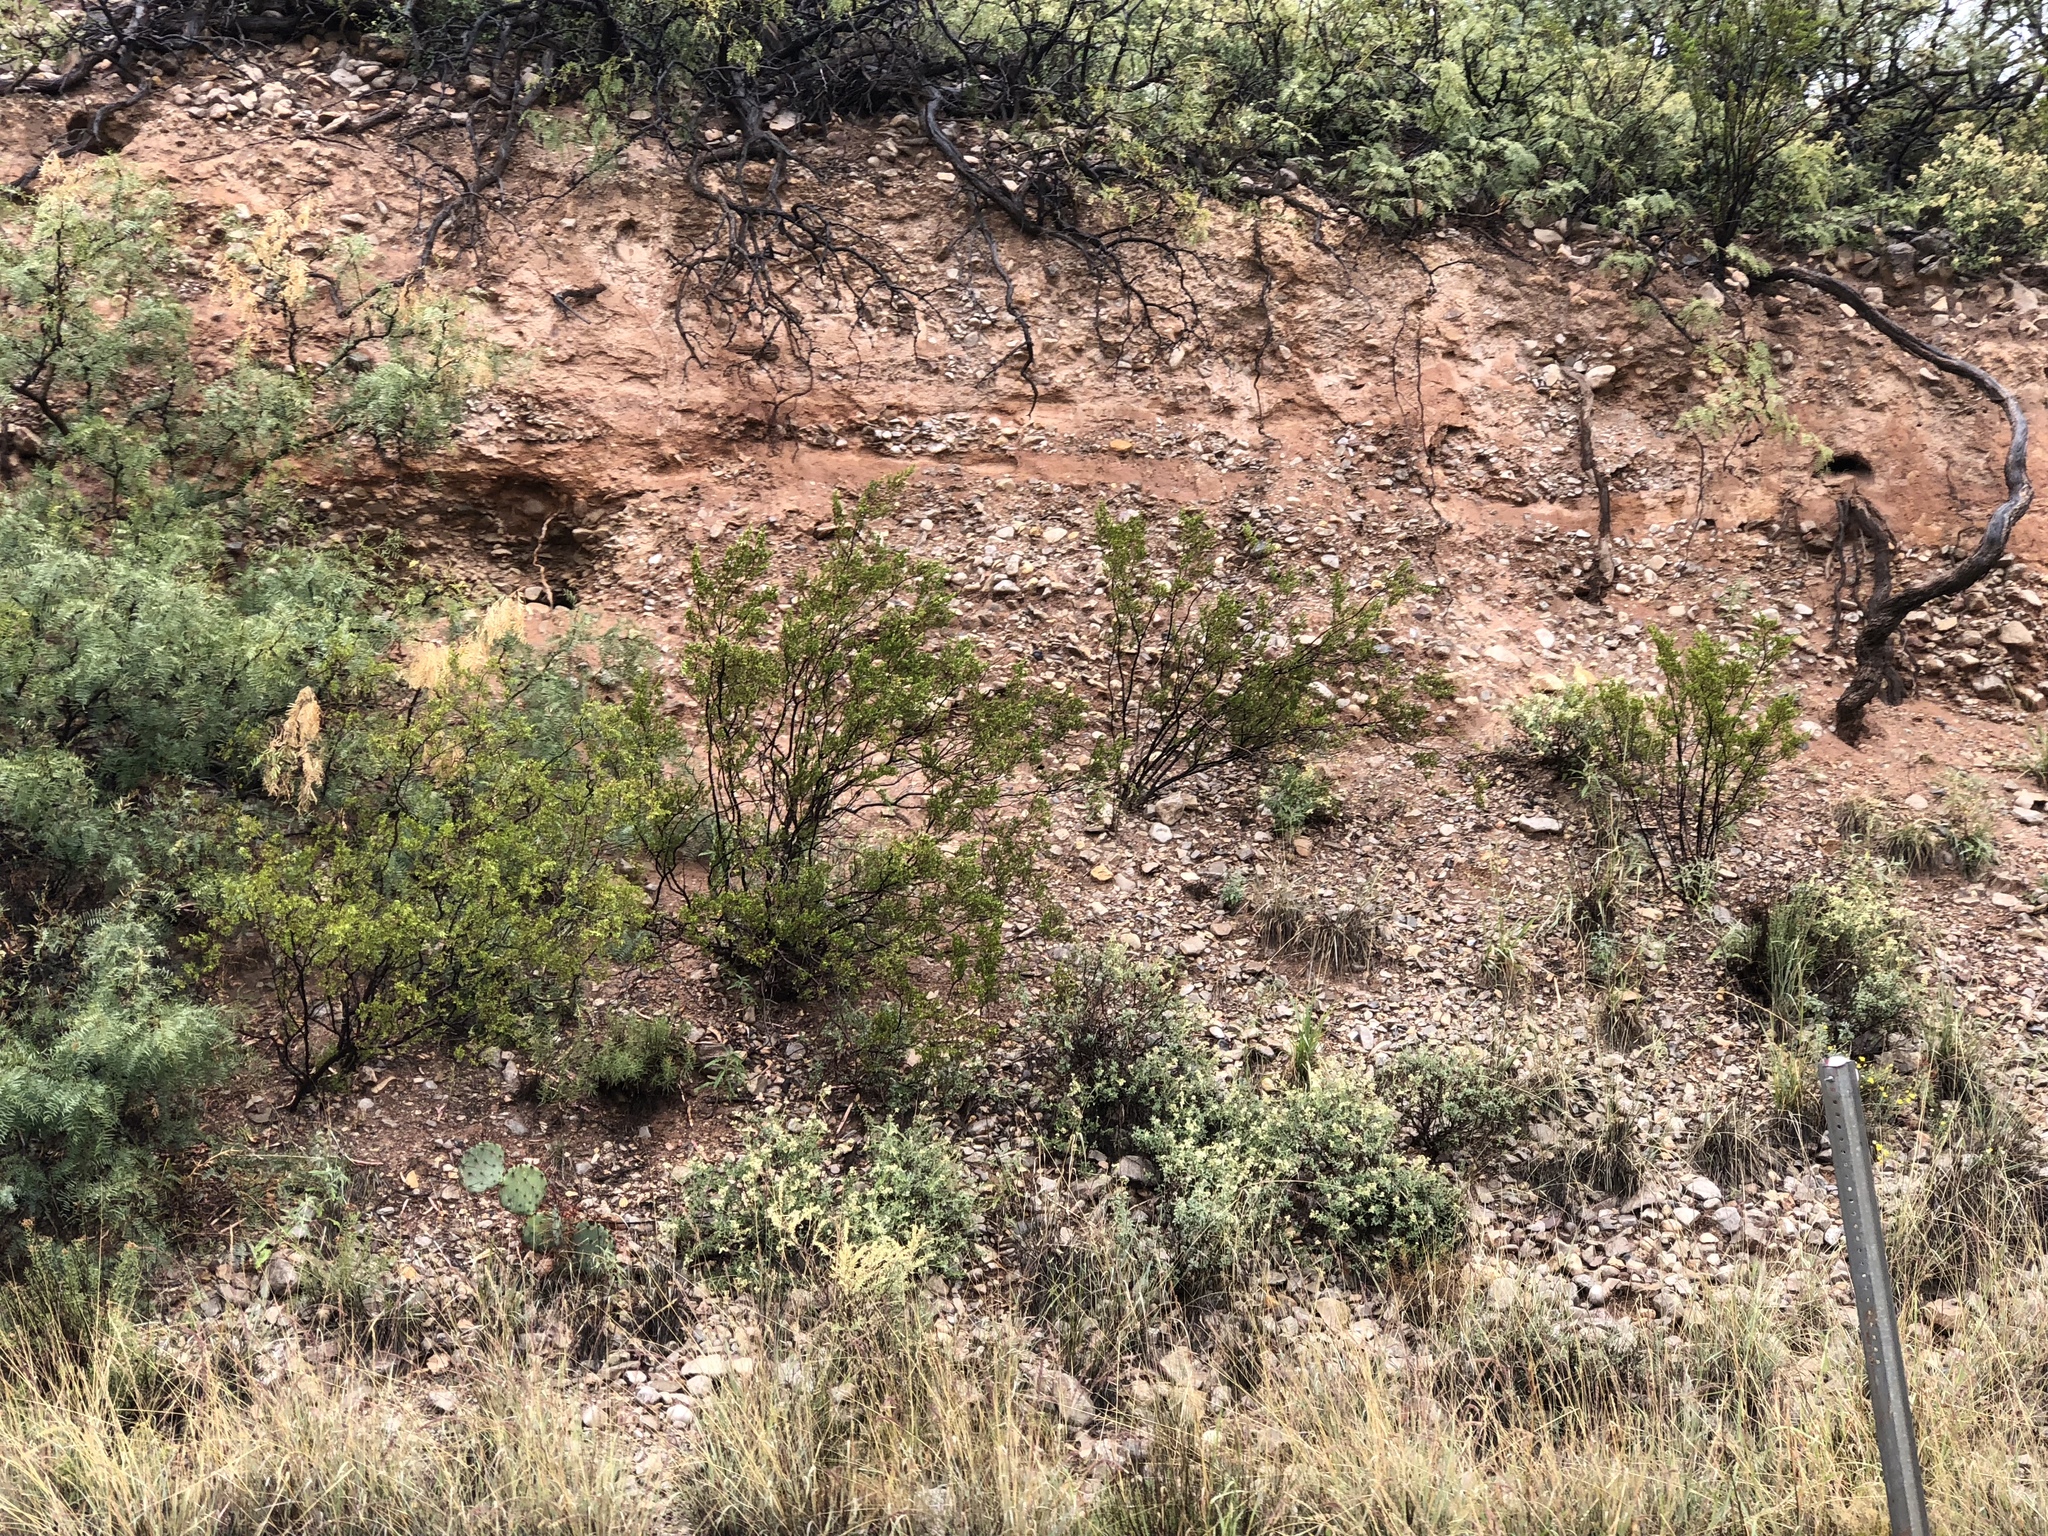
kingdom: Plantae
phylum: Tracheophyta
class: Magnoliopsida
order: Zygophyllales
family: Zygophyllaceae
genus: Larrea
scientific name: Larrea tridentata
